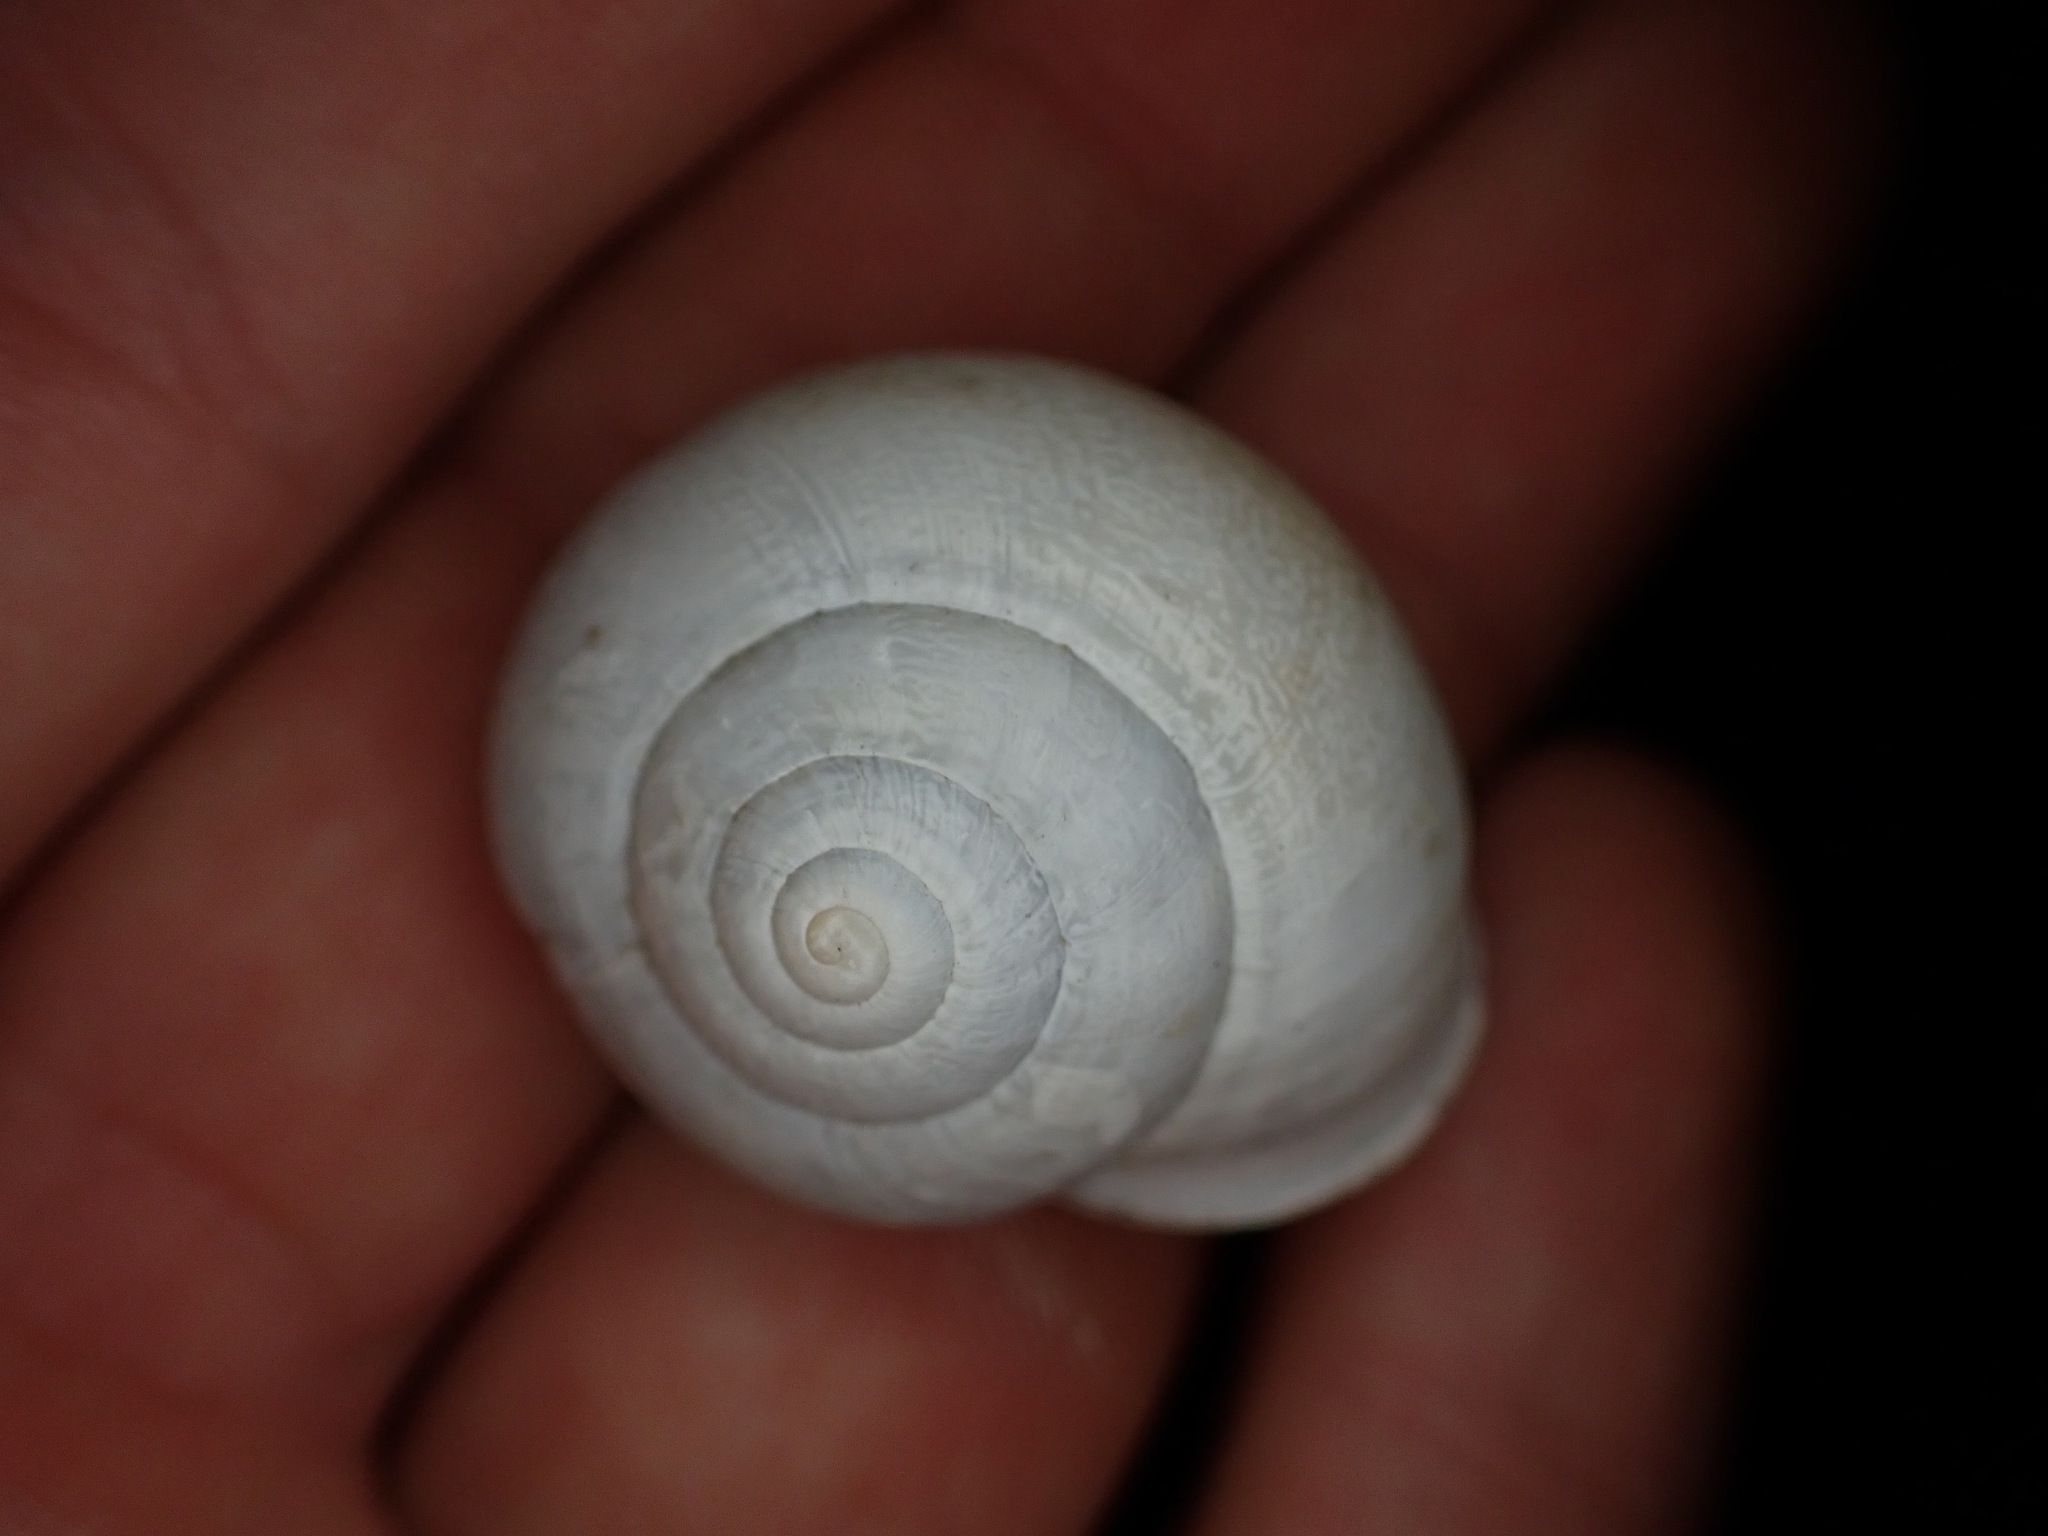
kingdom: Animalia
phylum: Mollusca
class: Gastropoda
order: Stylommatophora
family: Helicidae
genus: Eobania
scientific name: Eobania vermiculata
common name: Chocolateband snail
